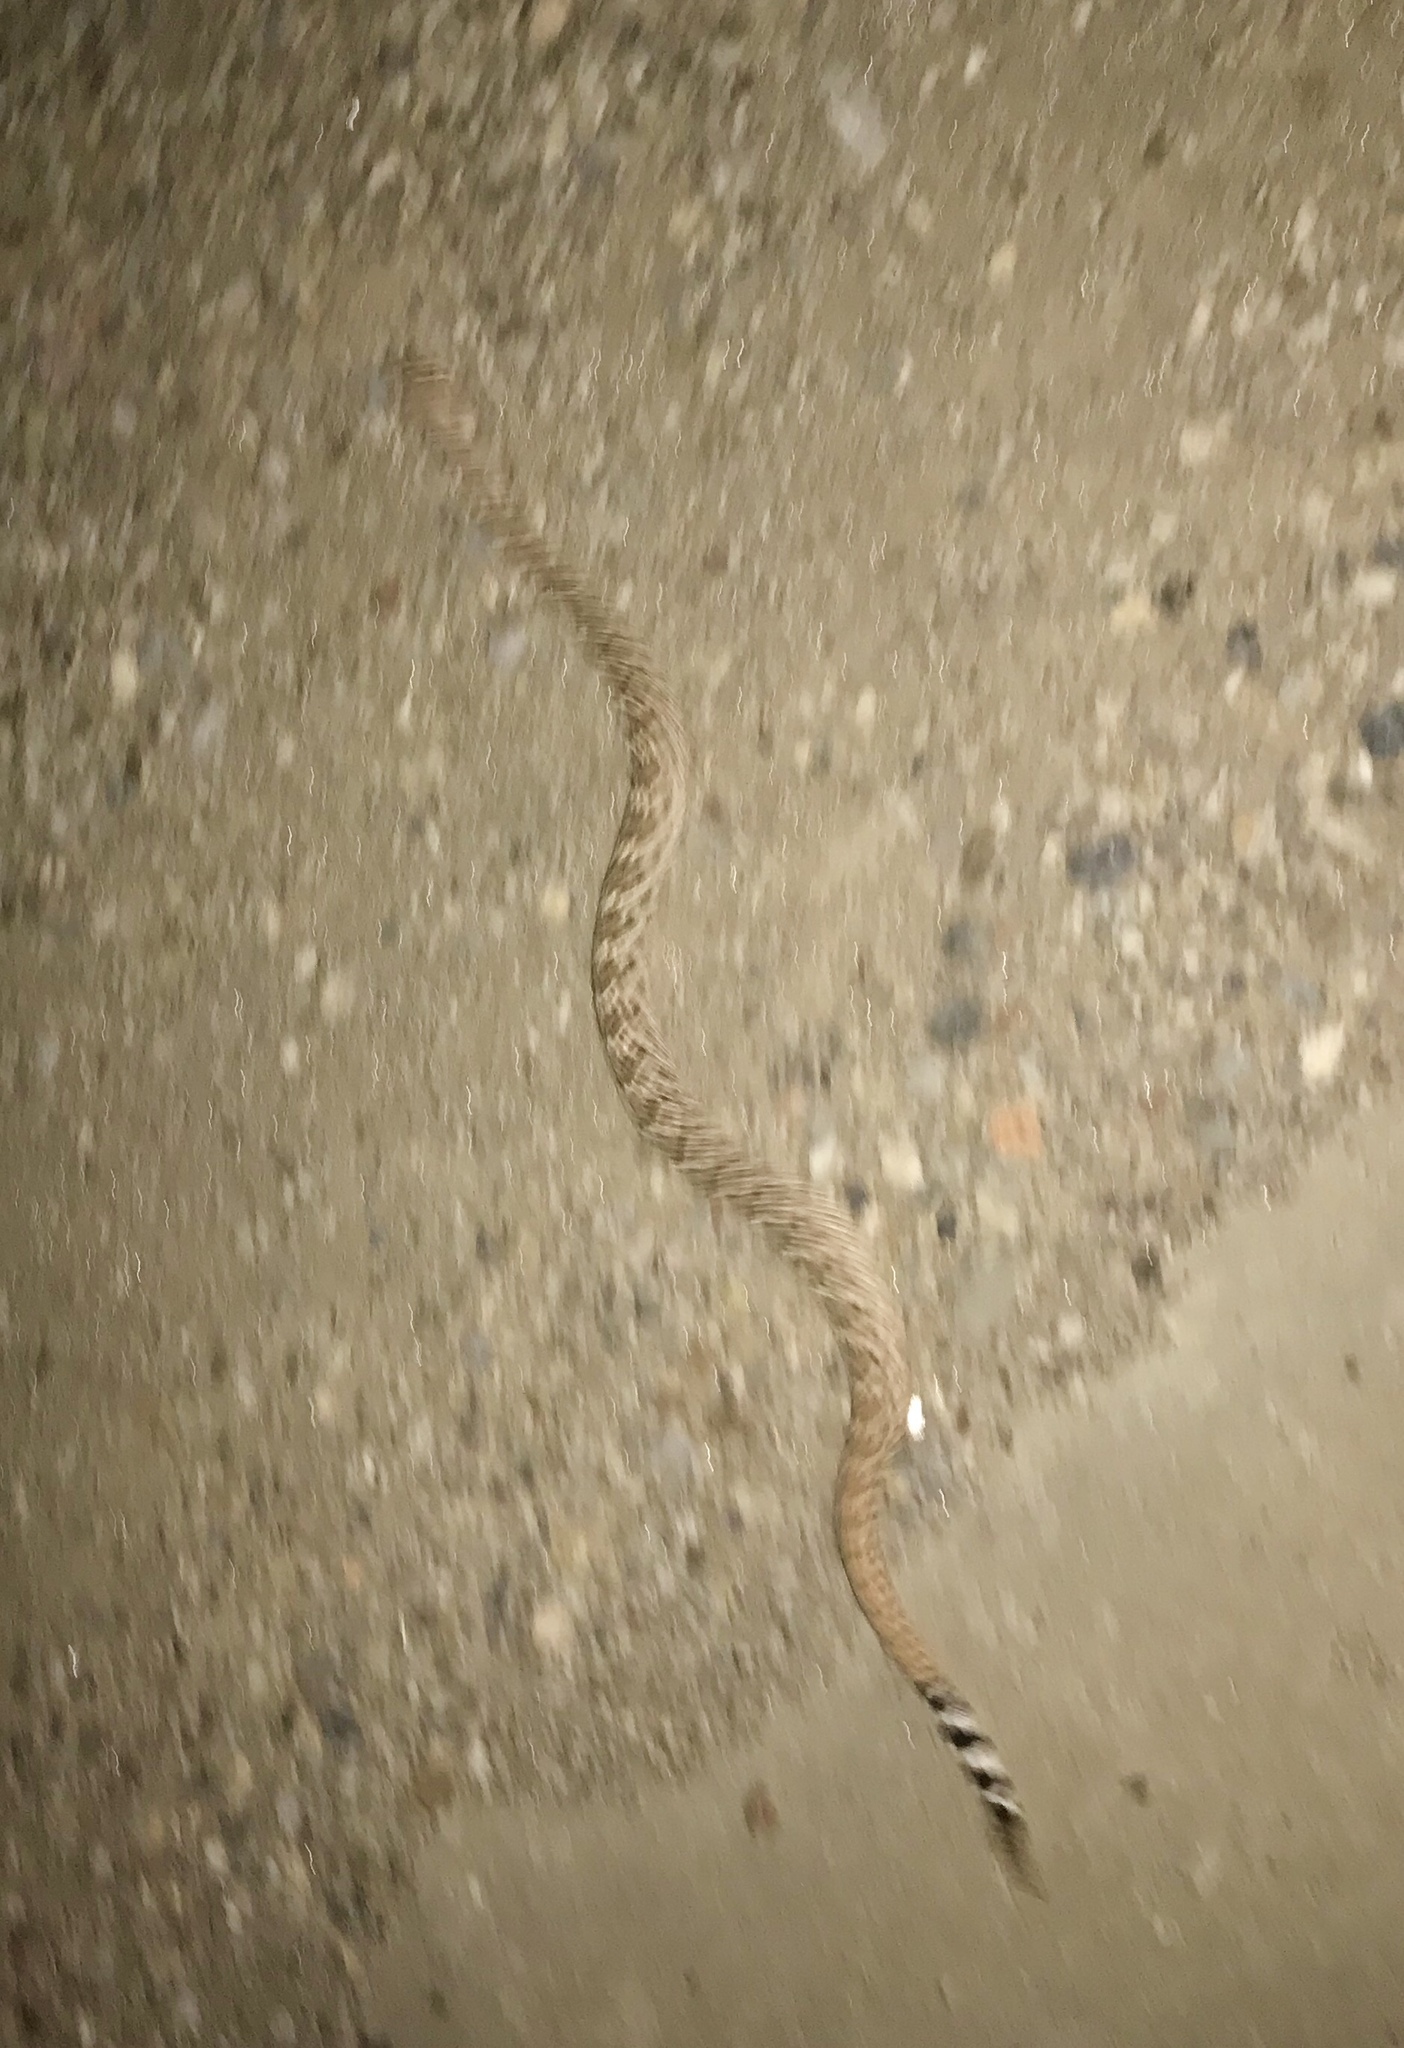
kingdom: Animalia
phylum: Chordata
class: Squamata
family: Viperidae
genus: Crotalus
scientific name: Crotalus atrox
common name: Western diamond-backed rattlesnake
